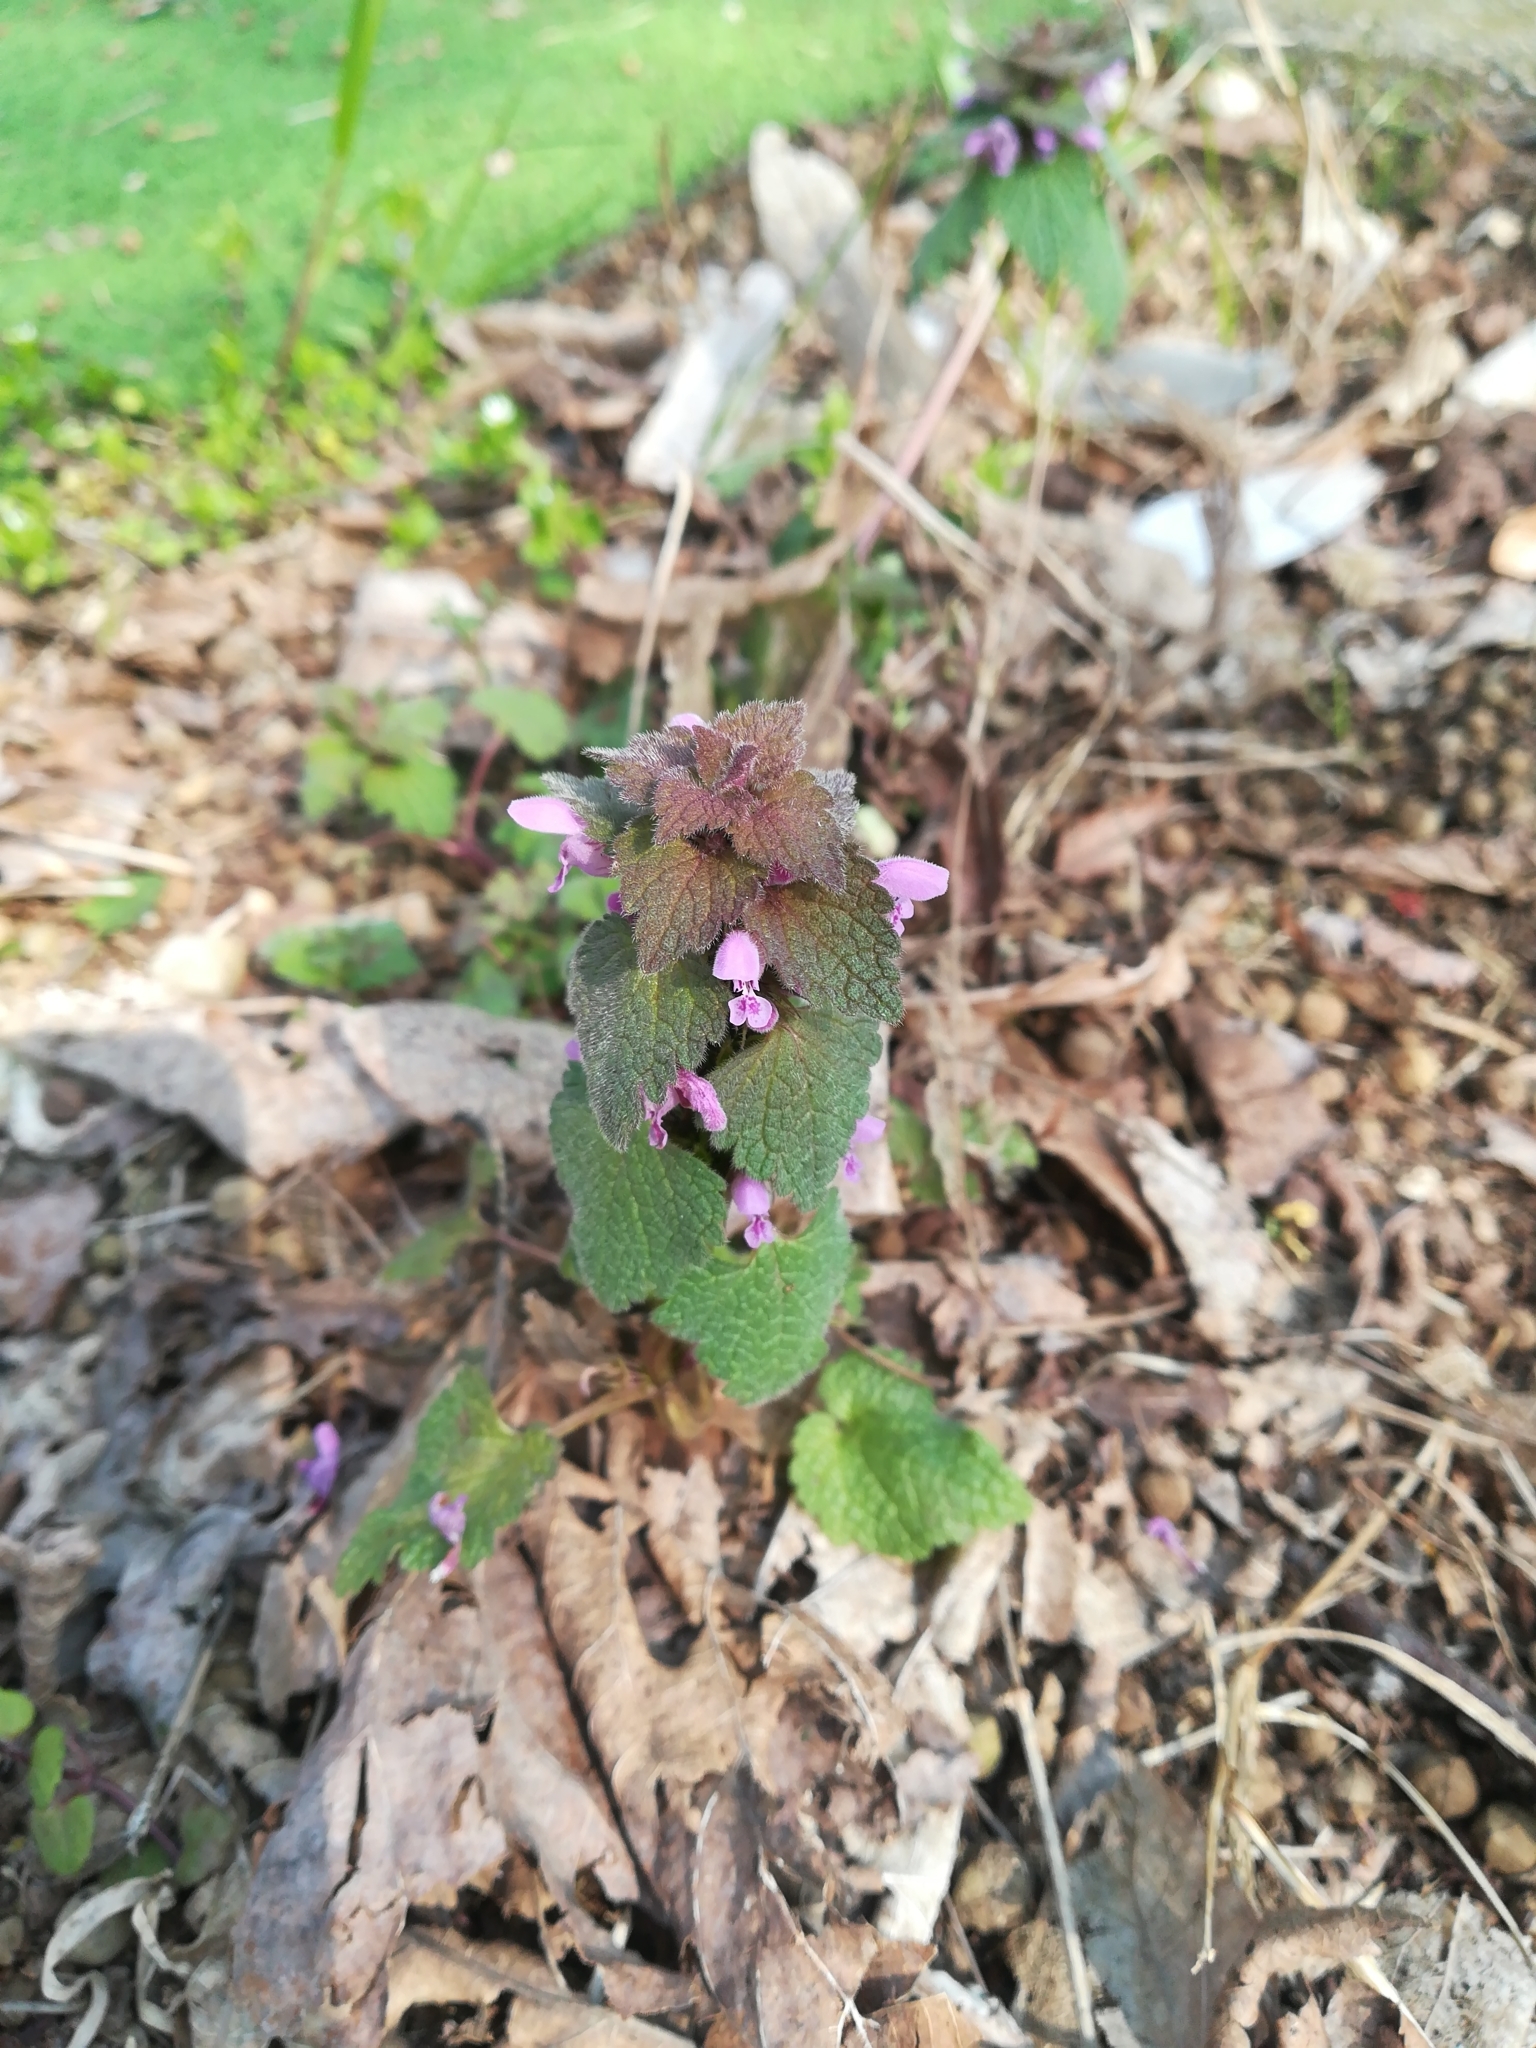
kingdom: Plantae
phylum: Tracheophyta
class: Magnoliopsida
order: Lamiales
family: Lamiaceae
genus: Lamium
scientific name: Lamium purpureum
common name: Red dead-nettle
